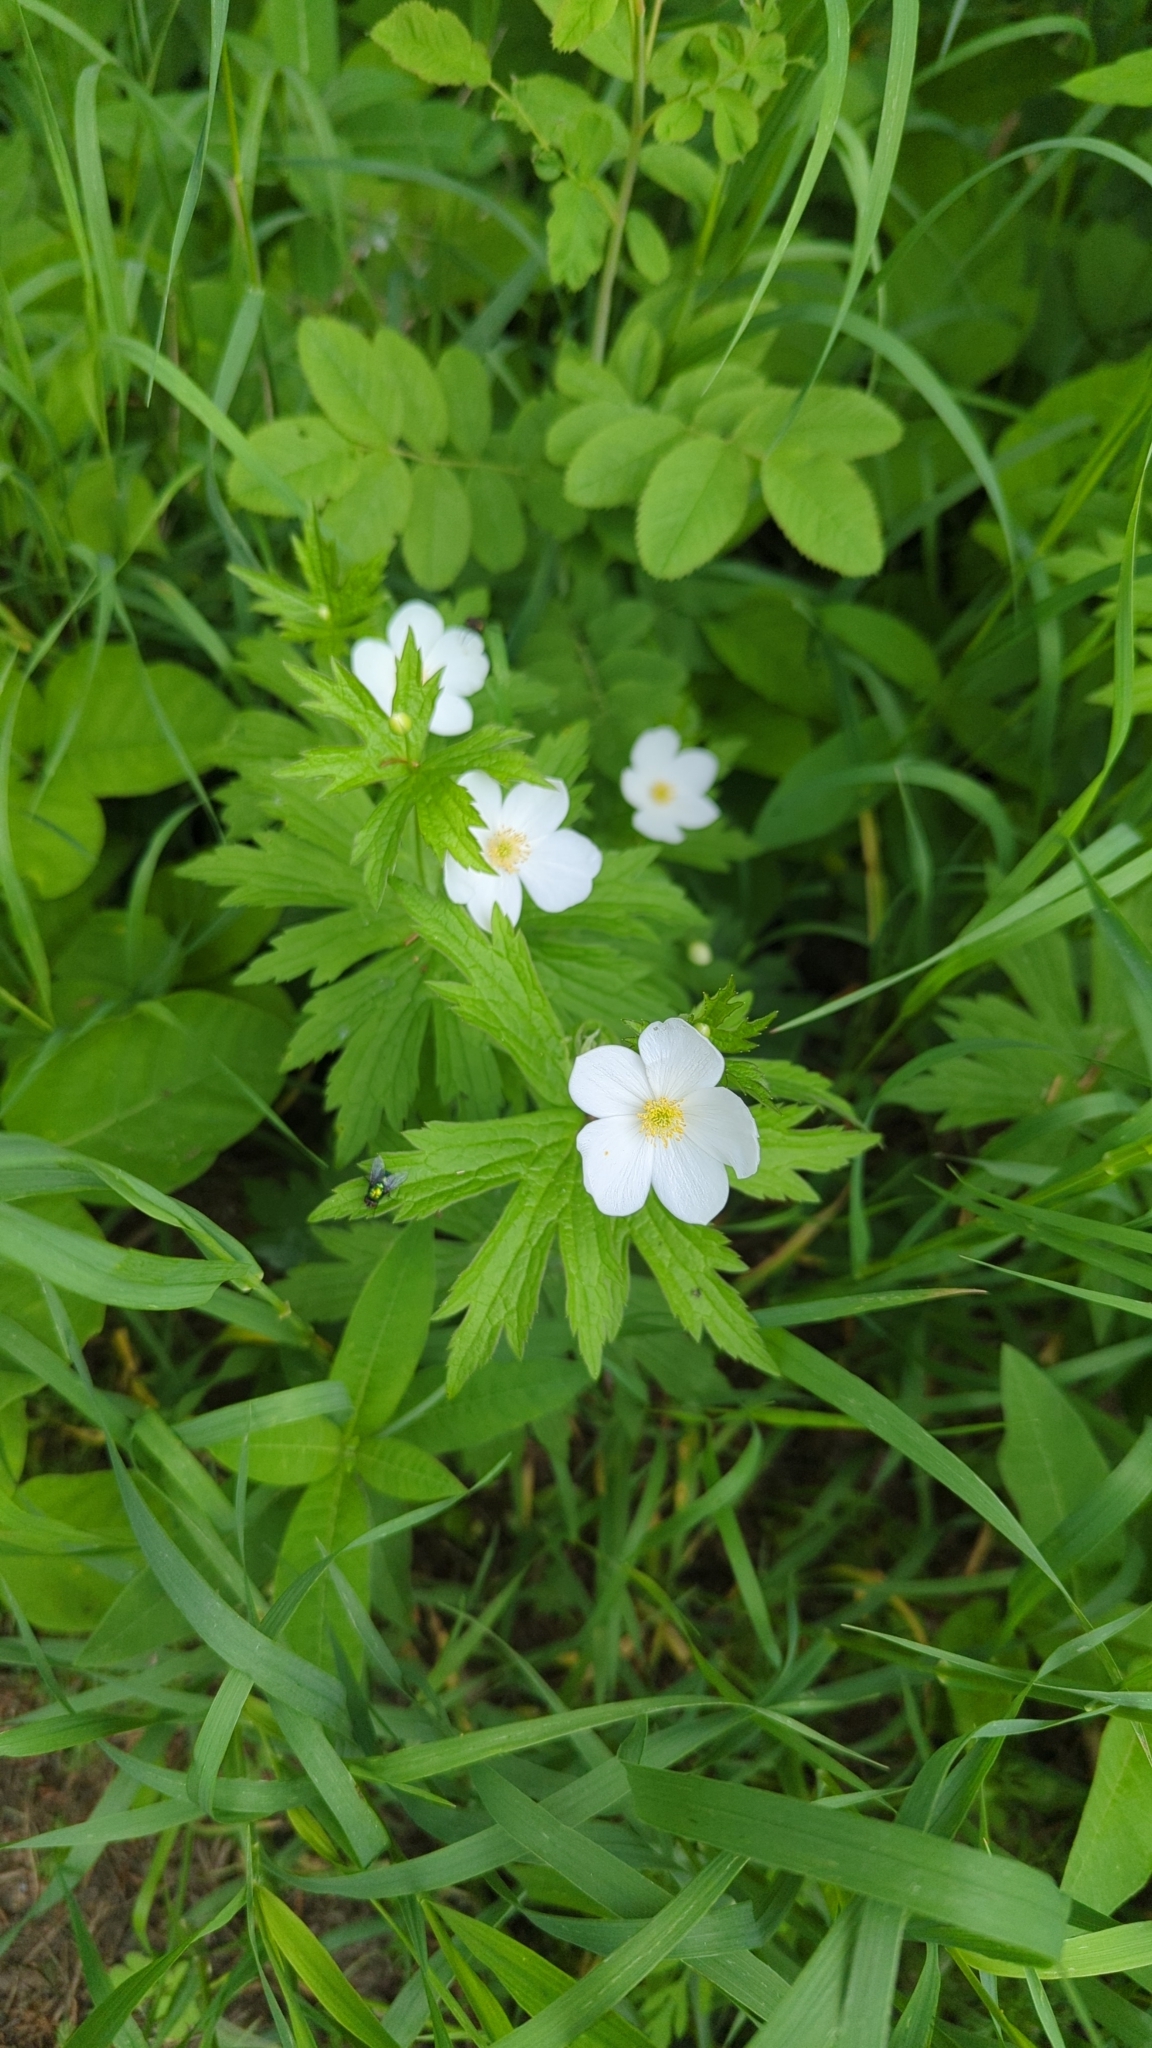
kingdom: Plantae
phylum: Tracheophyta
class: Magnoliopsida
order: Ranunculales
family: Ranunculaceae
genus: Anemonastrum
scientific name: Anemonastrum canadense
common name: Canada anemone
